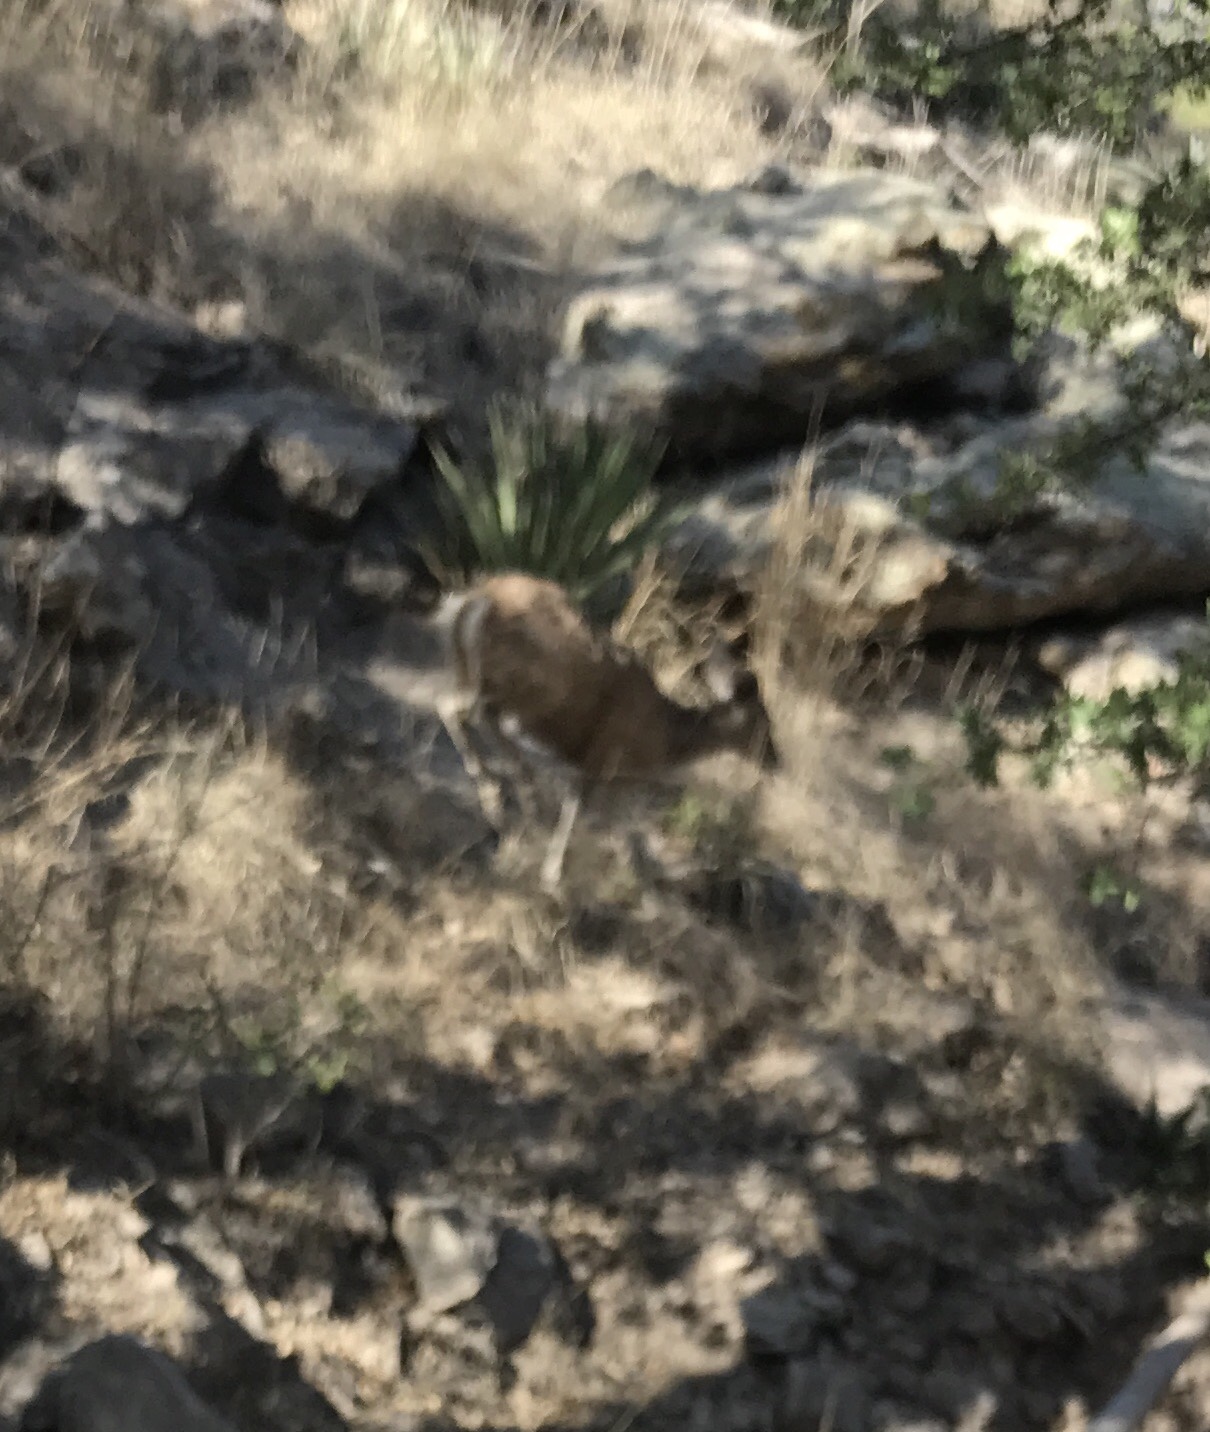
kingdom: Animalia
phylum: Chordata
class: Mammalia
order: Artiodactyla
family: Cervidae
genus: Odocoileus
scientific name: Odocoileus virginianus
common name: White-tailed deer
